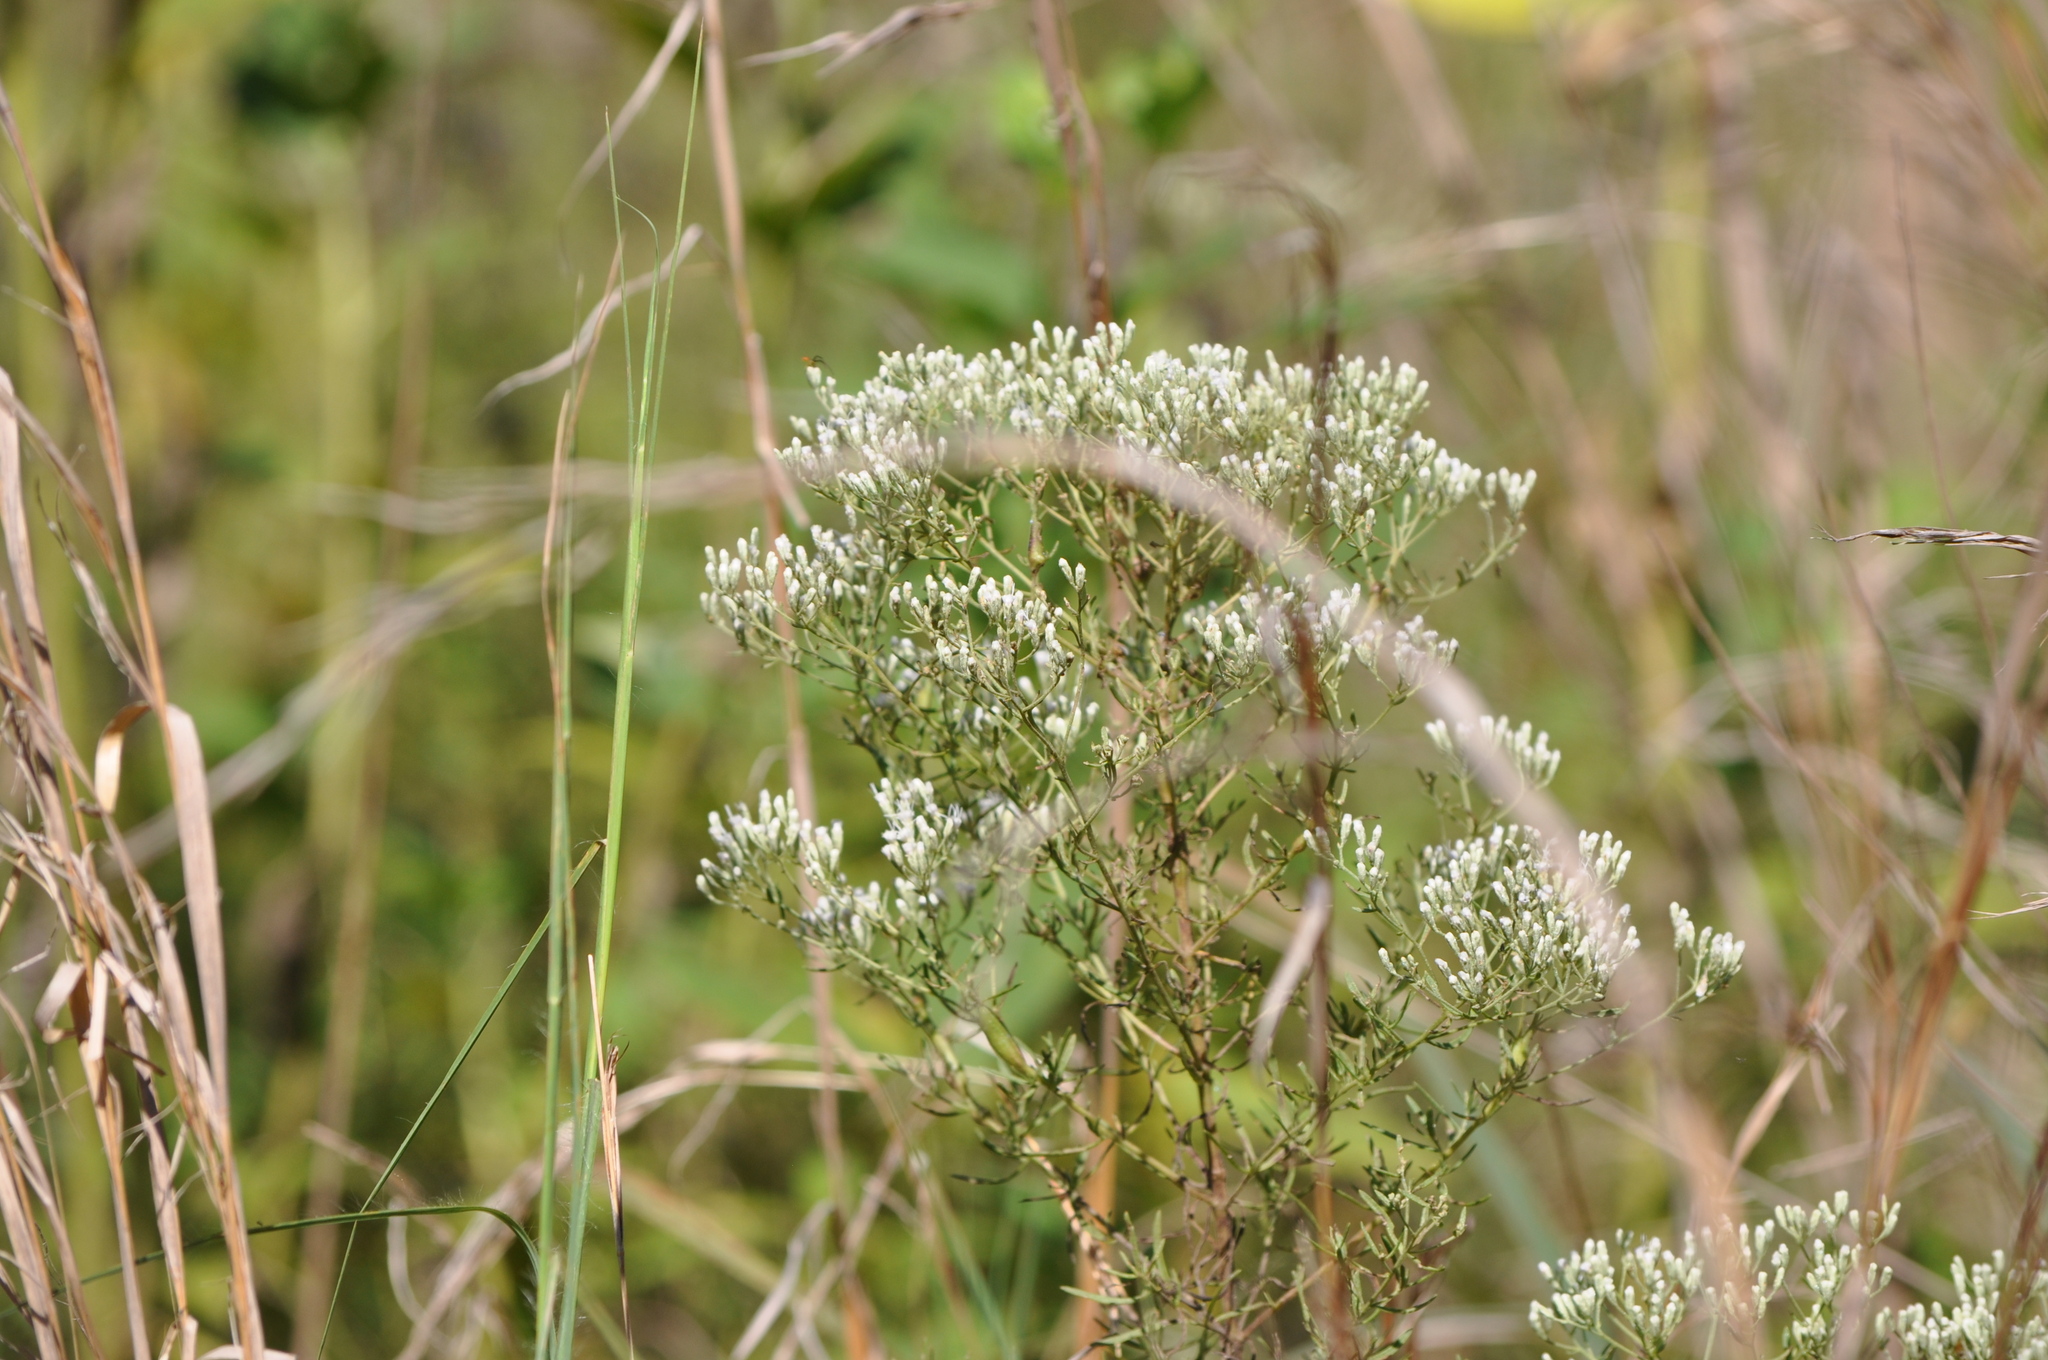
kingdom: Plantae
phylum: Tracheophyta
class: Magnoliopsida
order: Asterales
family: Asteraceae
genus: Eupatorium
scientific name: Eupatorium hyssopifolium
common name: Hyssop-leaf thoroughwort
